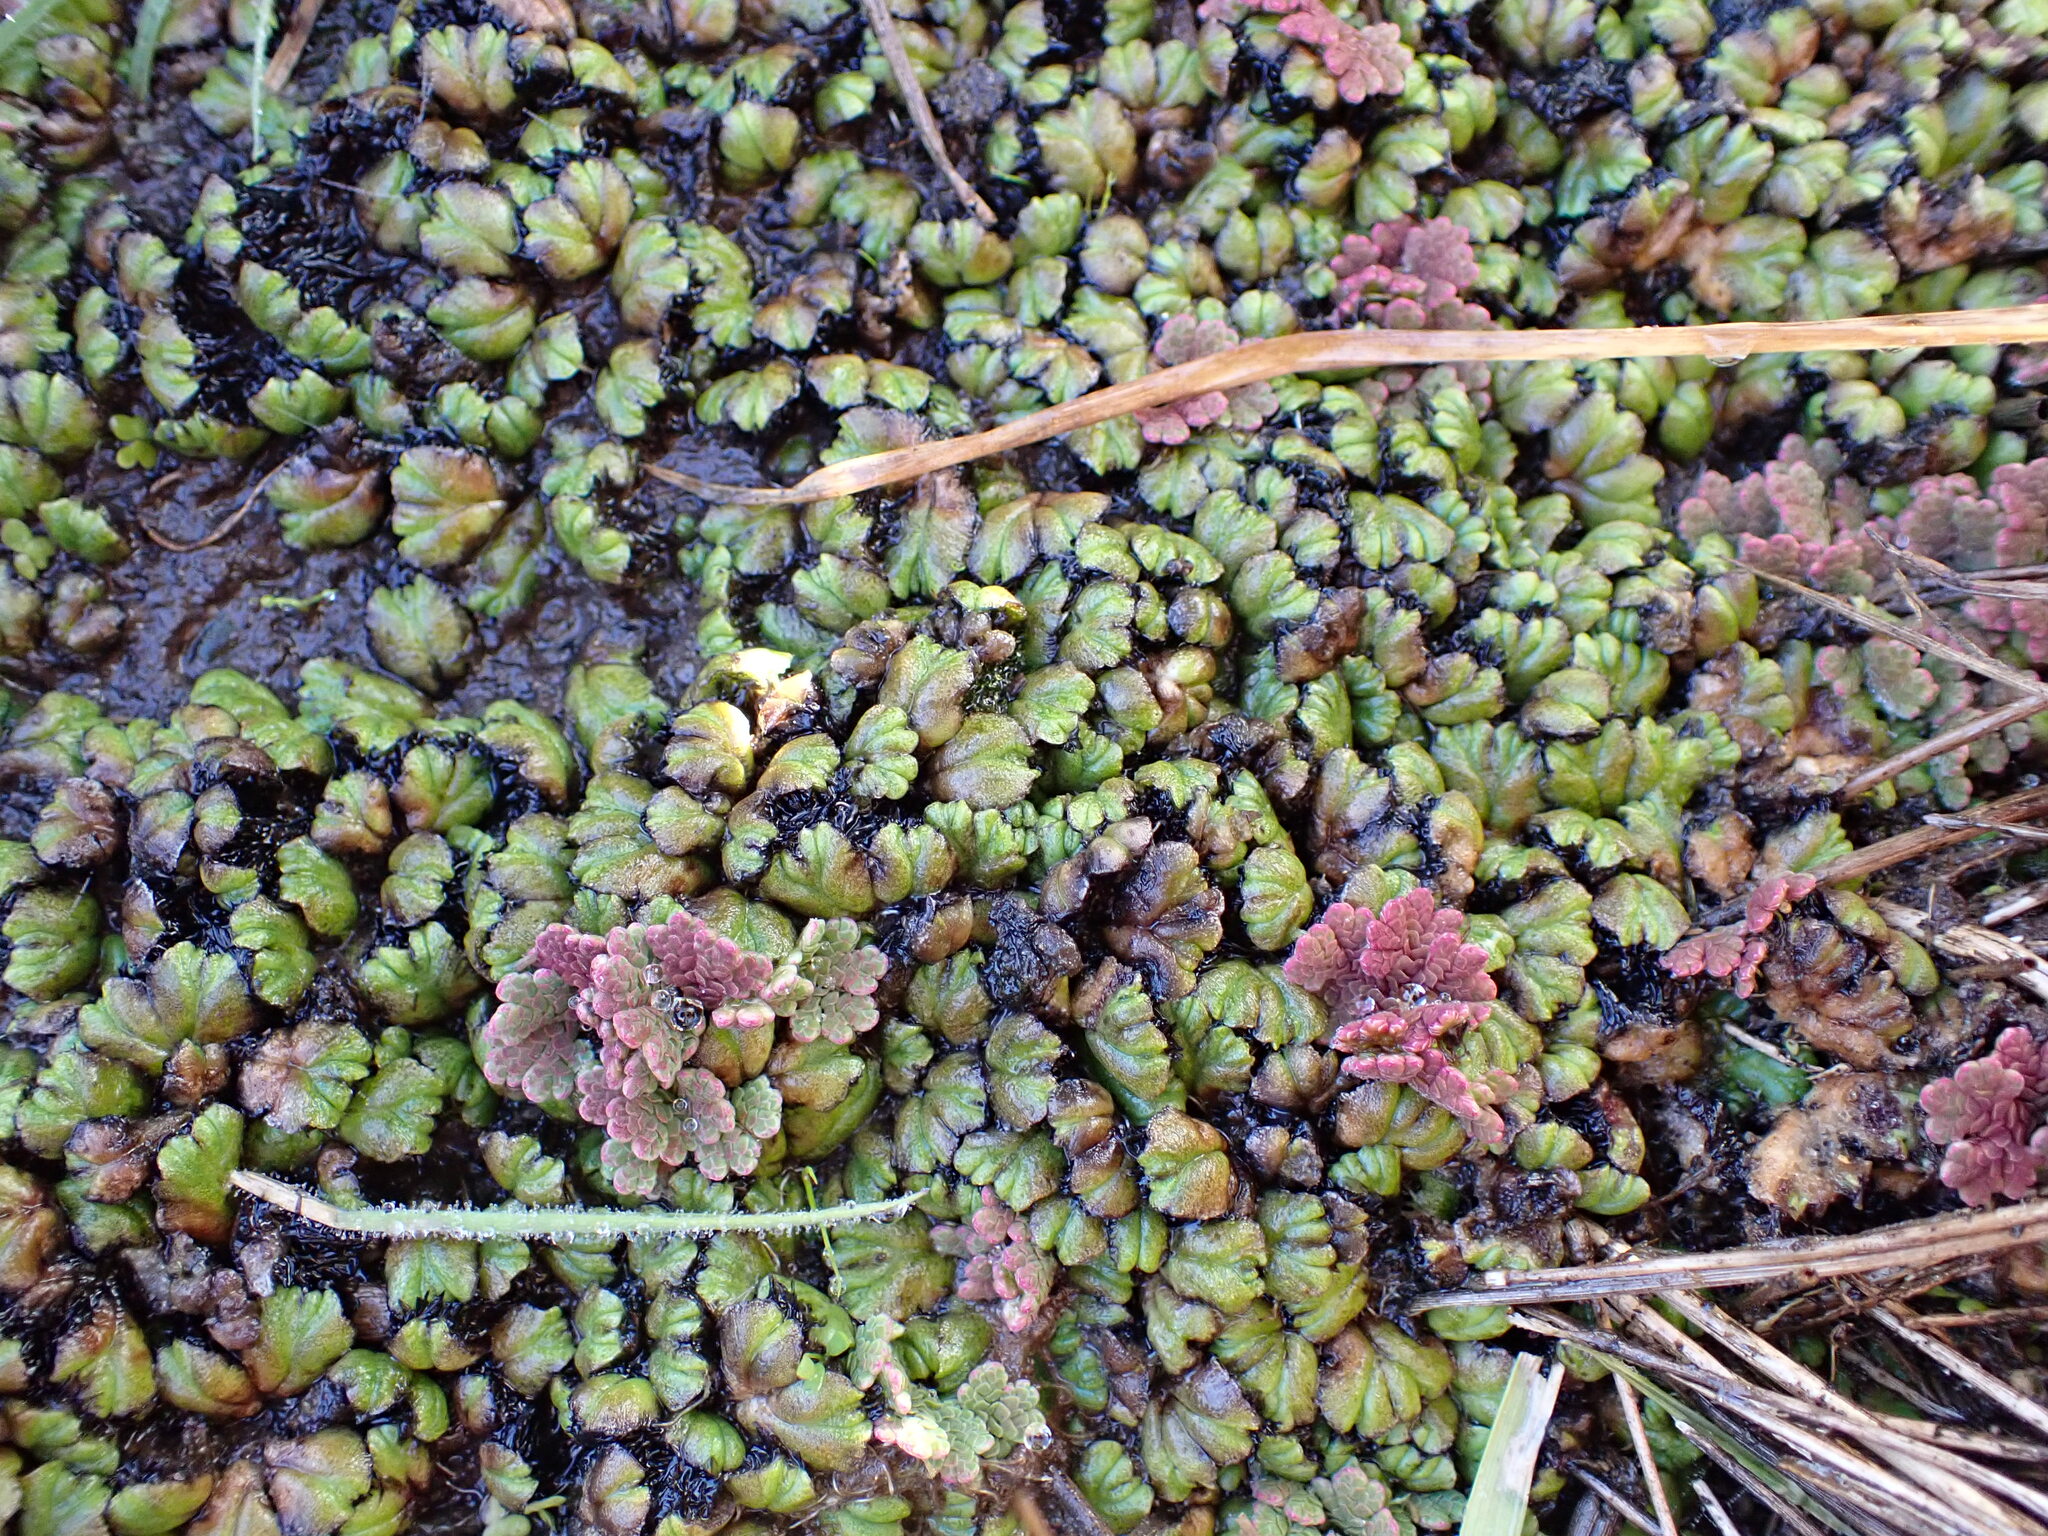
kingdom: Plantae
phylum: Marchantiophyta
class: Marchantiopsida
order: Marchantiales
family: Ricciaceae
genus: Ricciocarpos
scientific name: Ricciocarpos natans
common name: Purple-fringed liverwort
